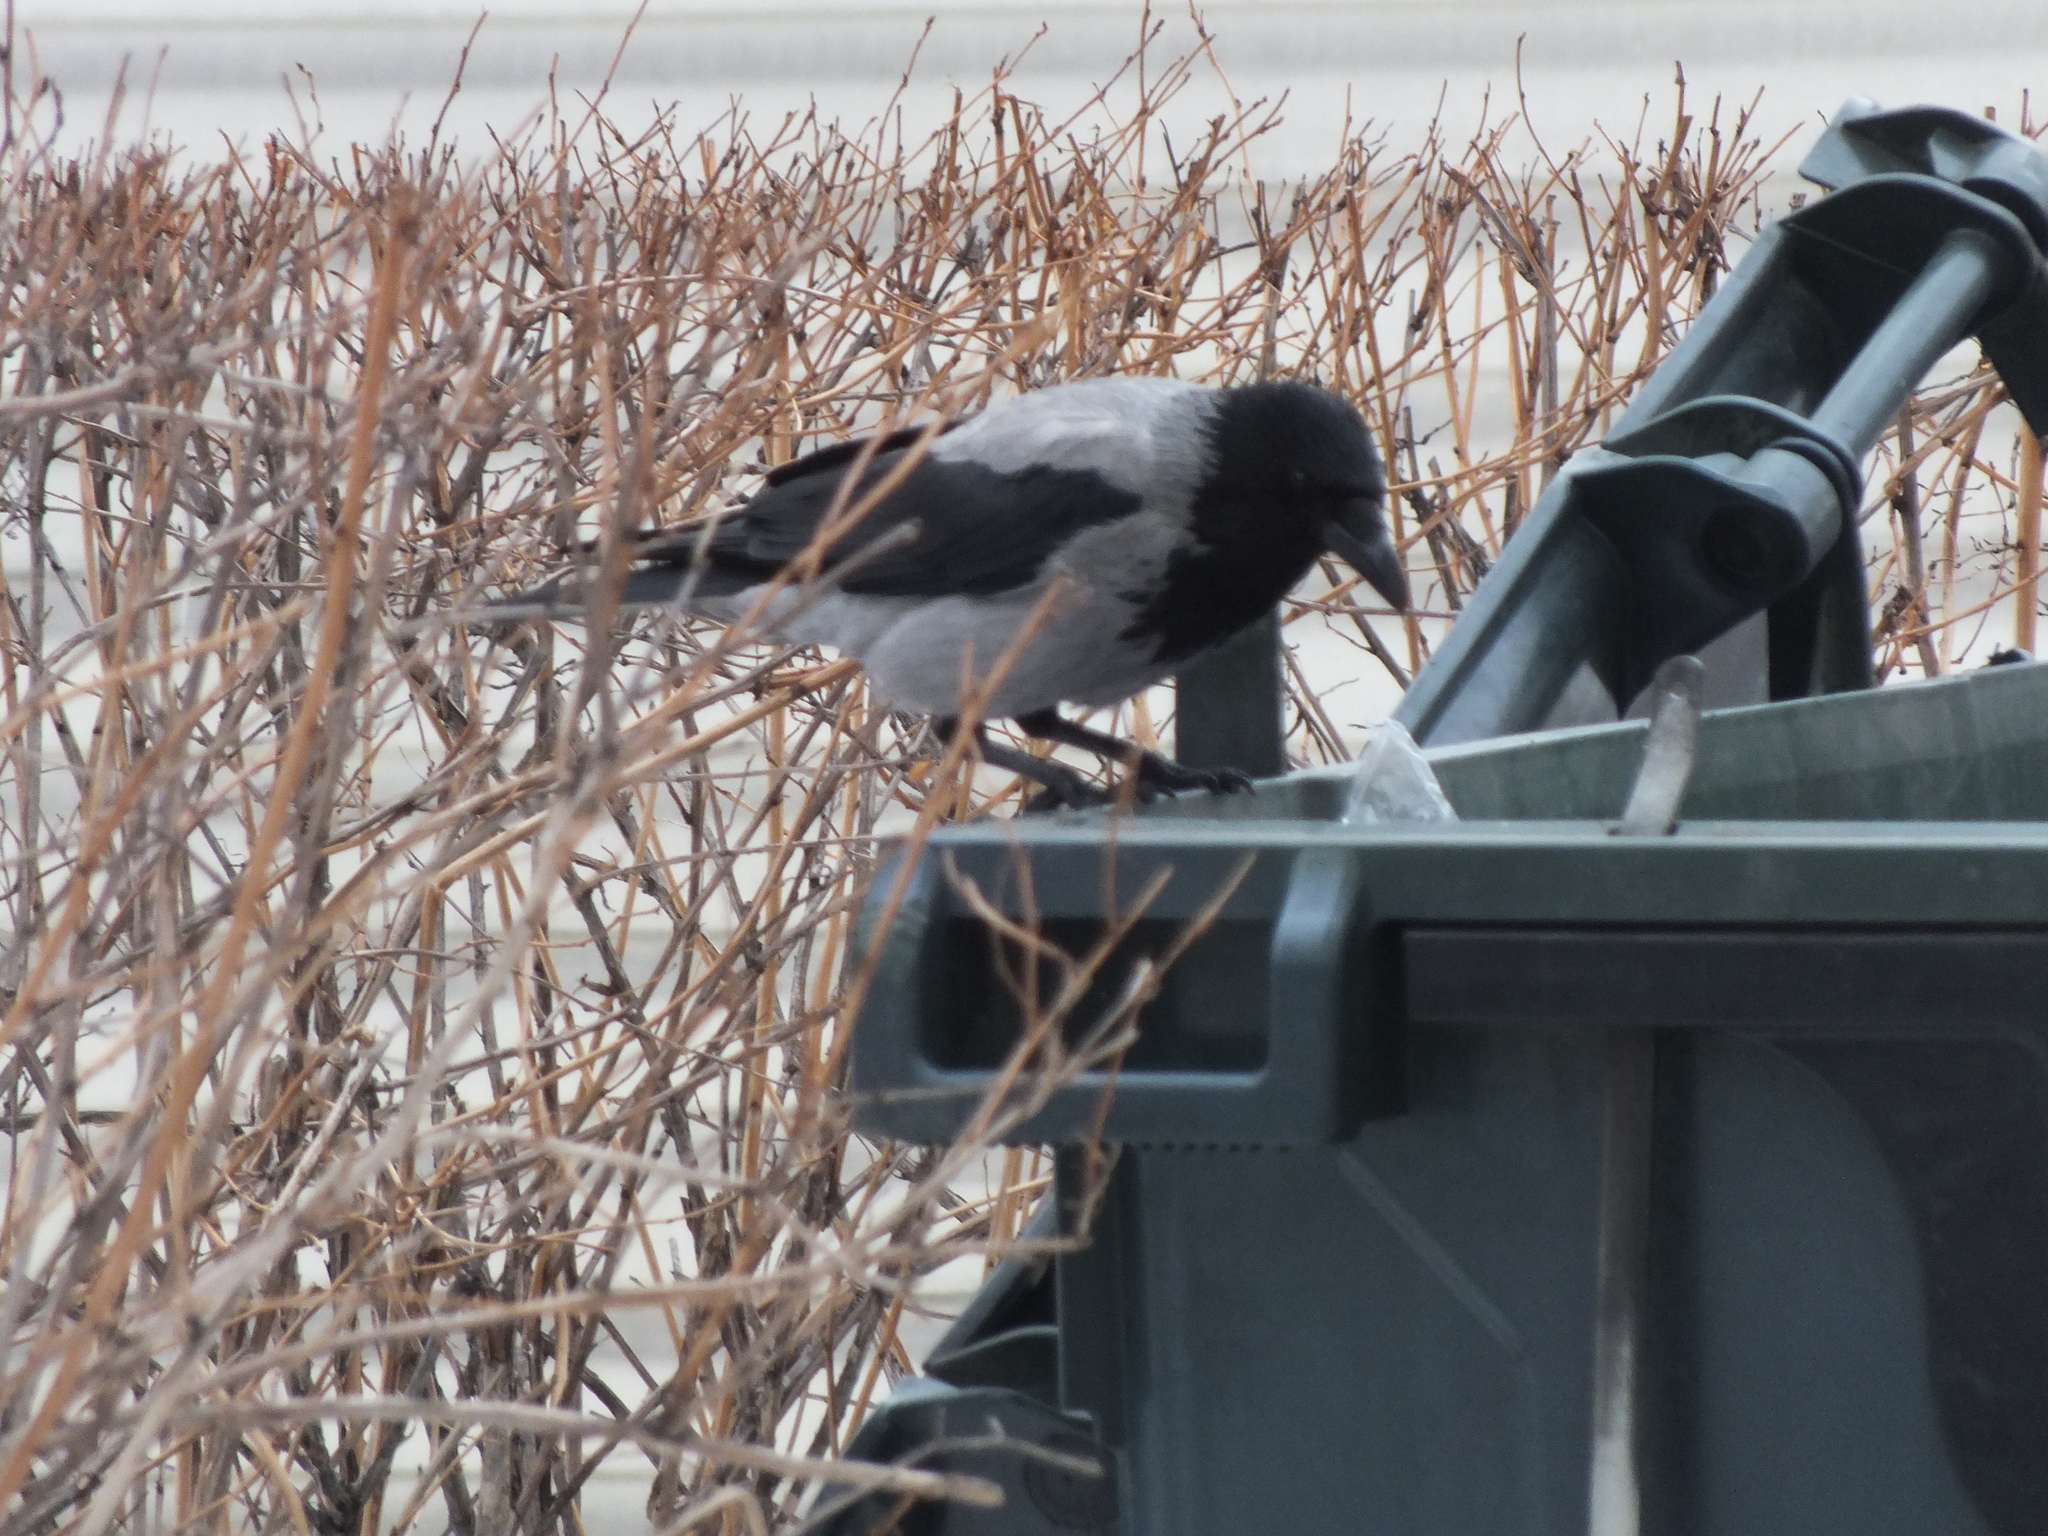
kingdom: Animalia
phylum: Chordata
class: Aves
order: Passeriformes
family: Corvidae
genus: Corvus
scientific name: Corvus cornix
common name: Hooded crow
